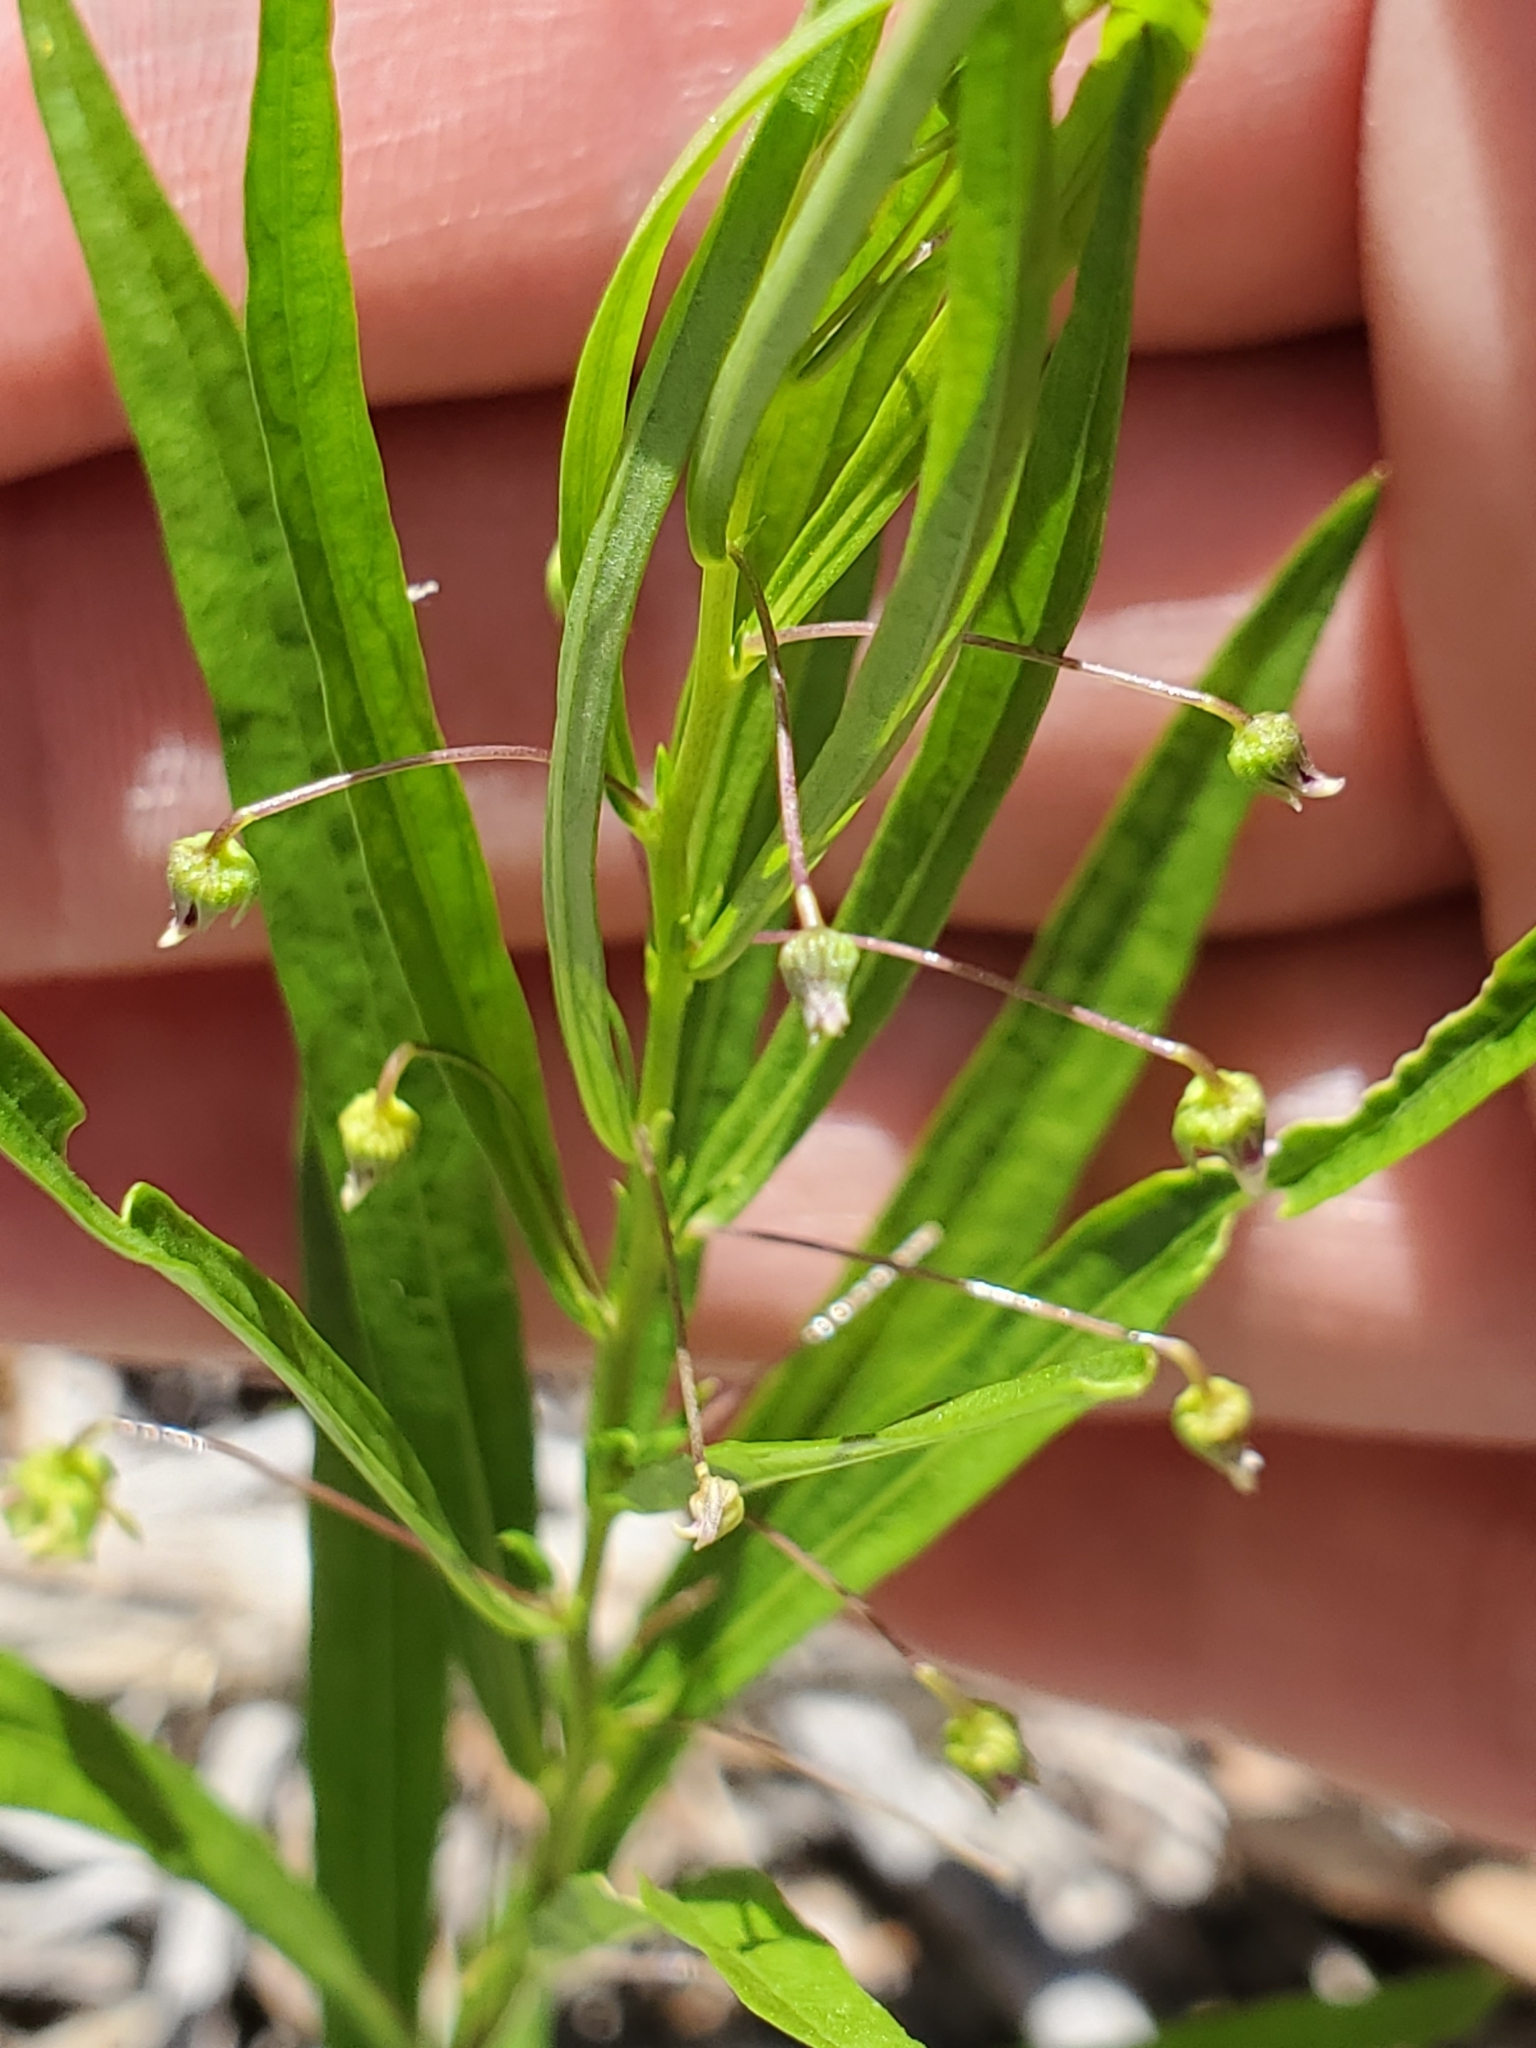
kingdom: Plantae
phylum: Tracheophyta
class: Magnoliopsida
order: Malpighiales
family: Violaceae
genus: Pombalia
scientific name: Pombalia verticillata
